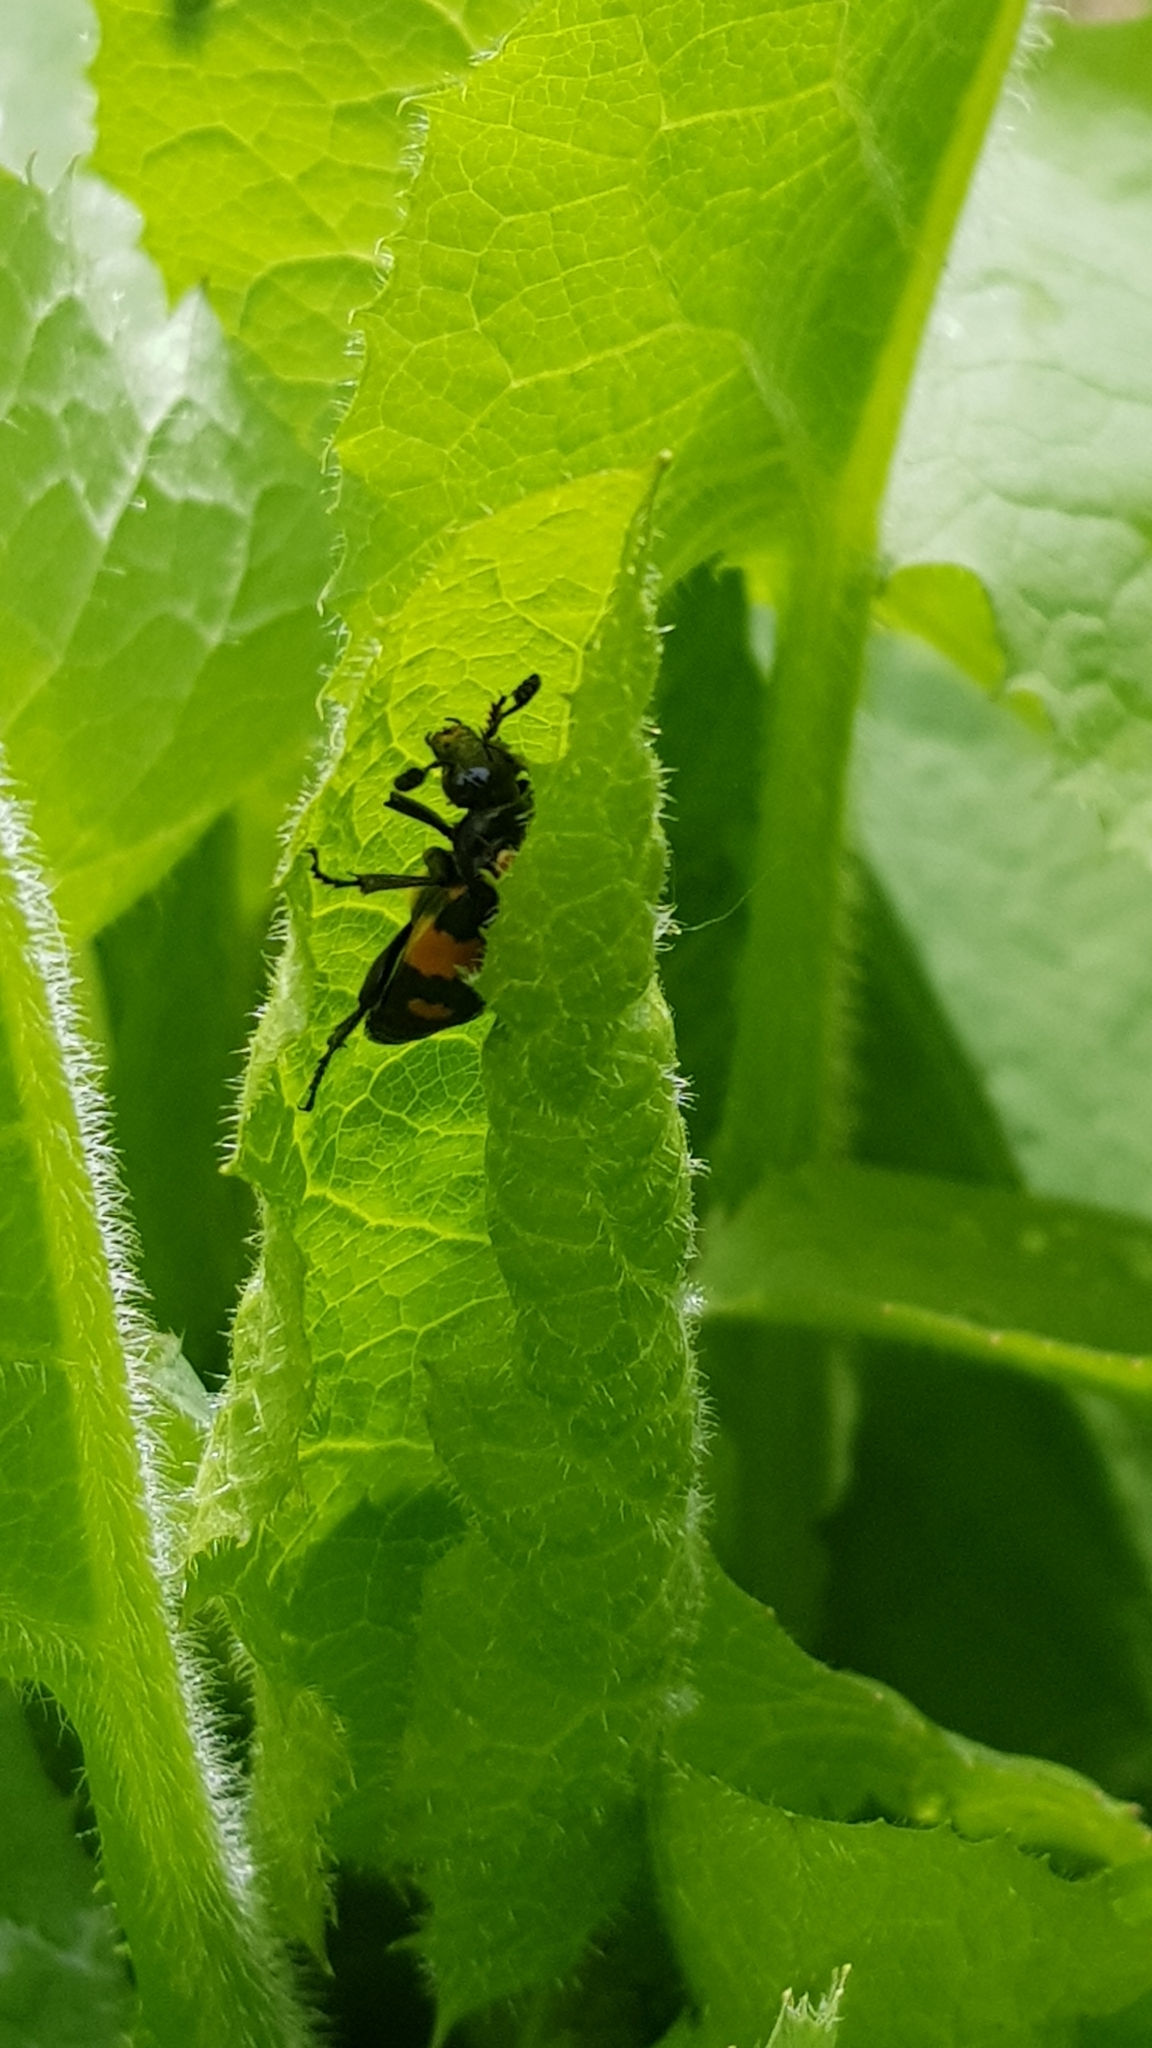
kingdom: Animalia
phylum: Arthropoda
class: Insecta
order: Coleoptera
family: Staphylinidae
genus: Nicrophorus
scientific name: Nicrophorus vespilloides
